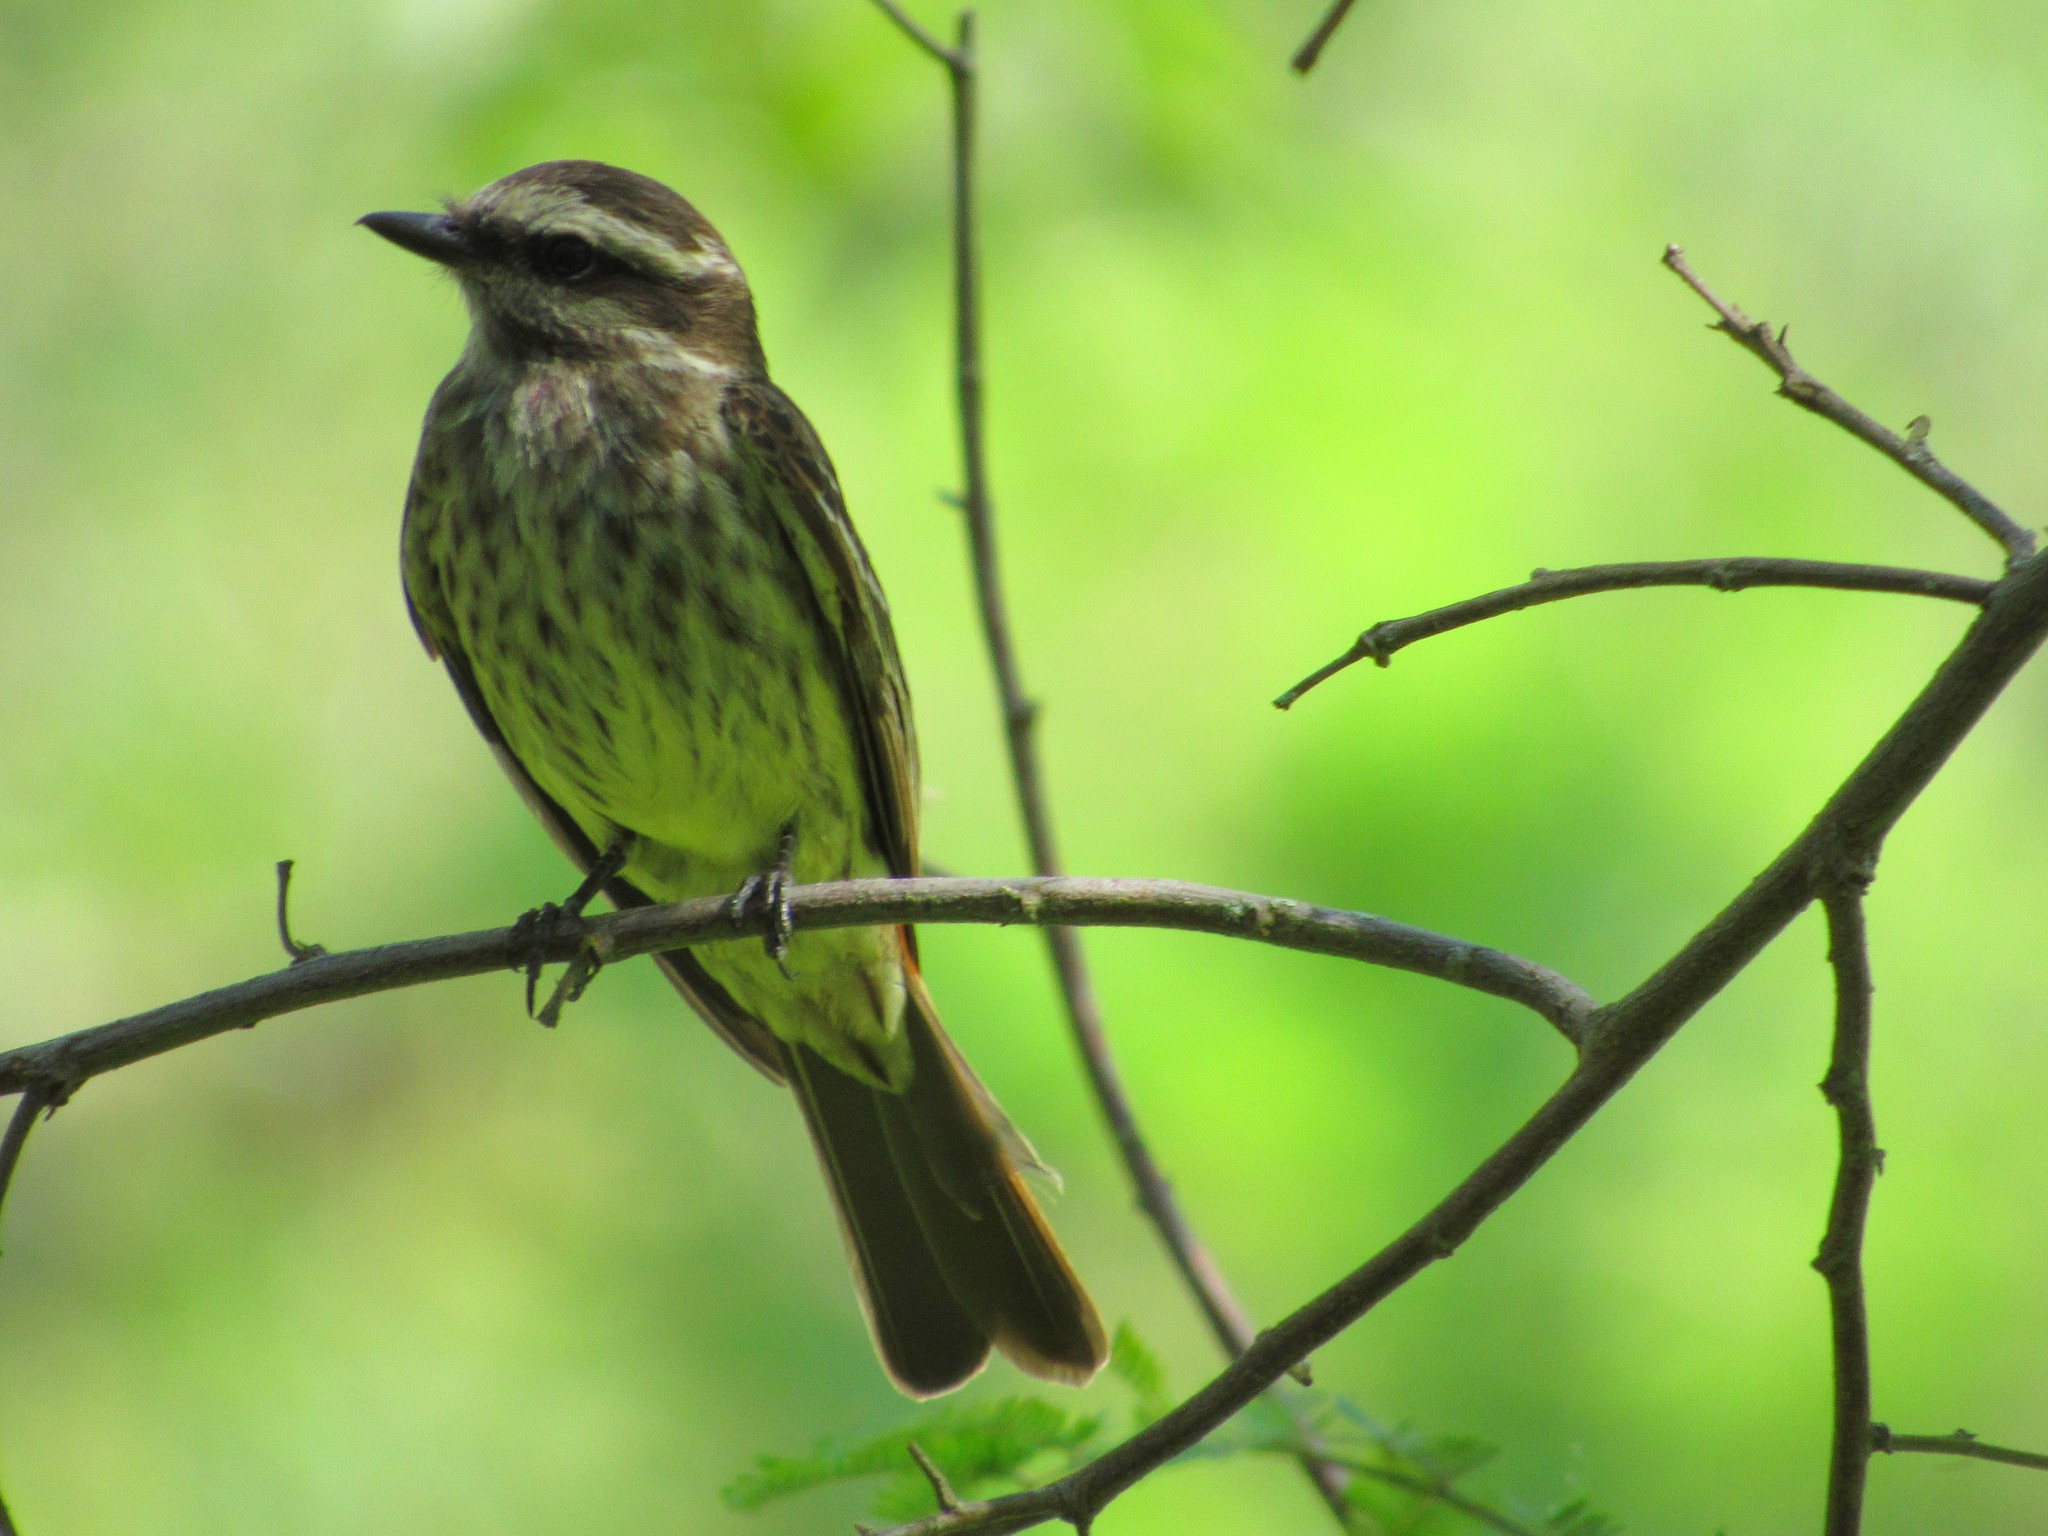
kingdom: Animalia
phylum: Chordata
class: Aves
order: Passeriformes
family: Tyrannidae
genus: Empidonomus
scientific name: Empidonomus varius
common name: Variegated flycatcher
